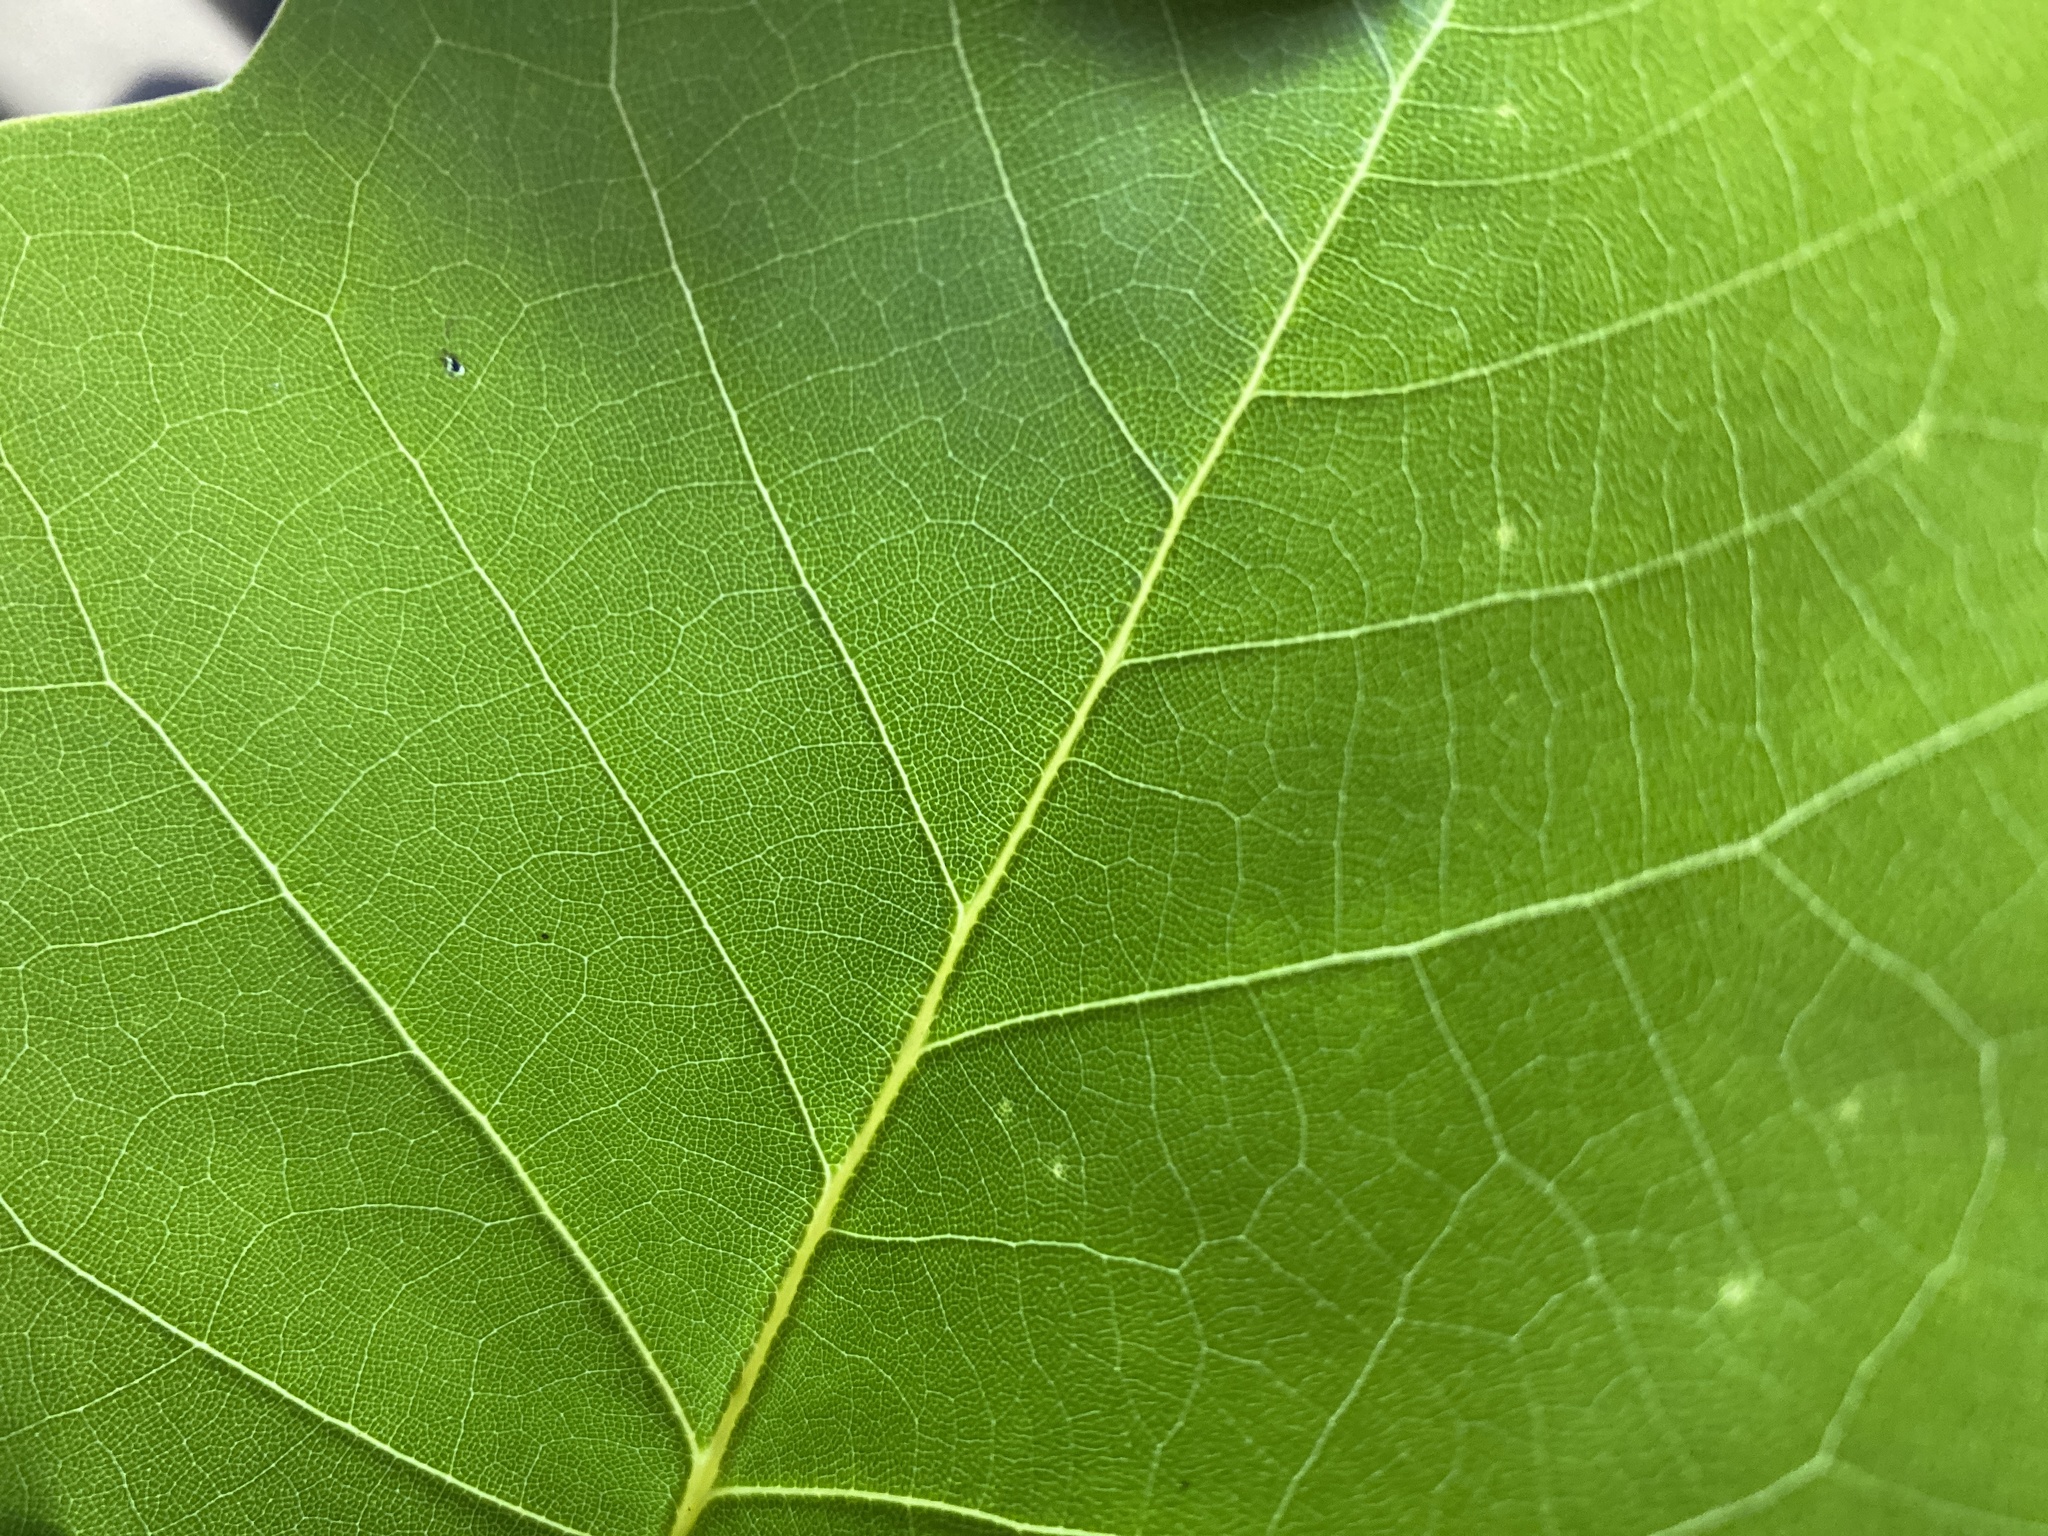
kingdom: Plantae
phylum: Tracheophyta
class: Magnoliopsida
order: Magnoliales
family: Magnoliaceae
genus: Liriodendron
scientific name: Liriodendron tulipifera
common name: Tulip tree
